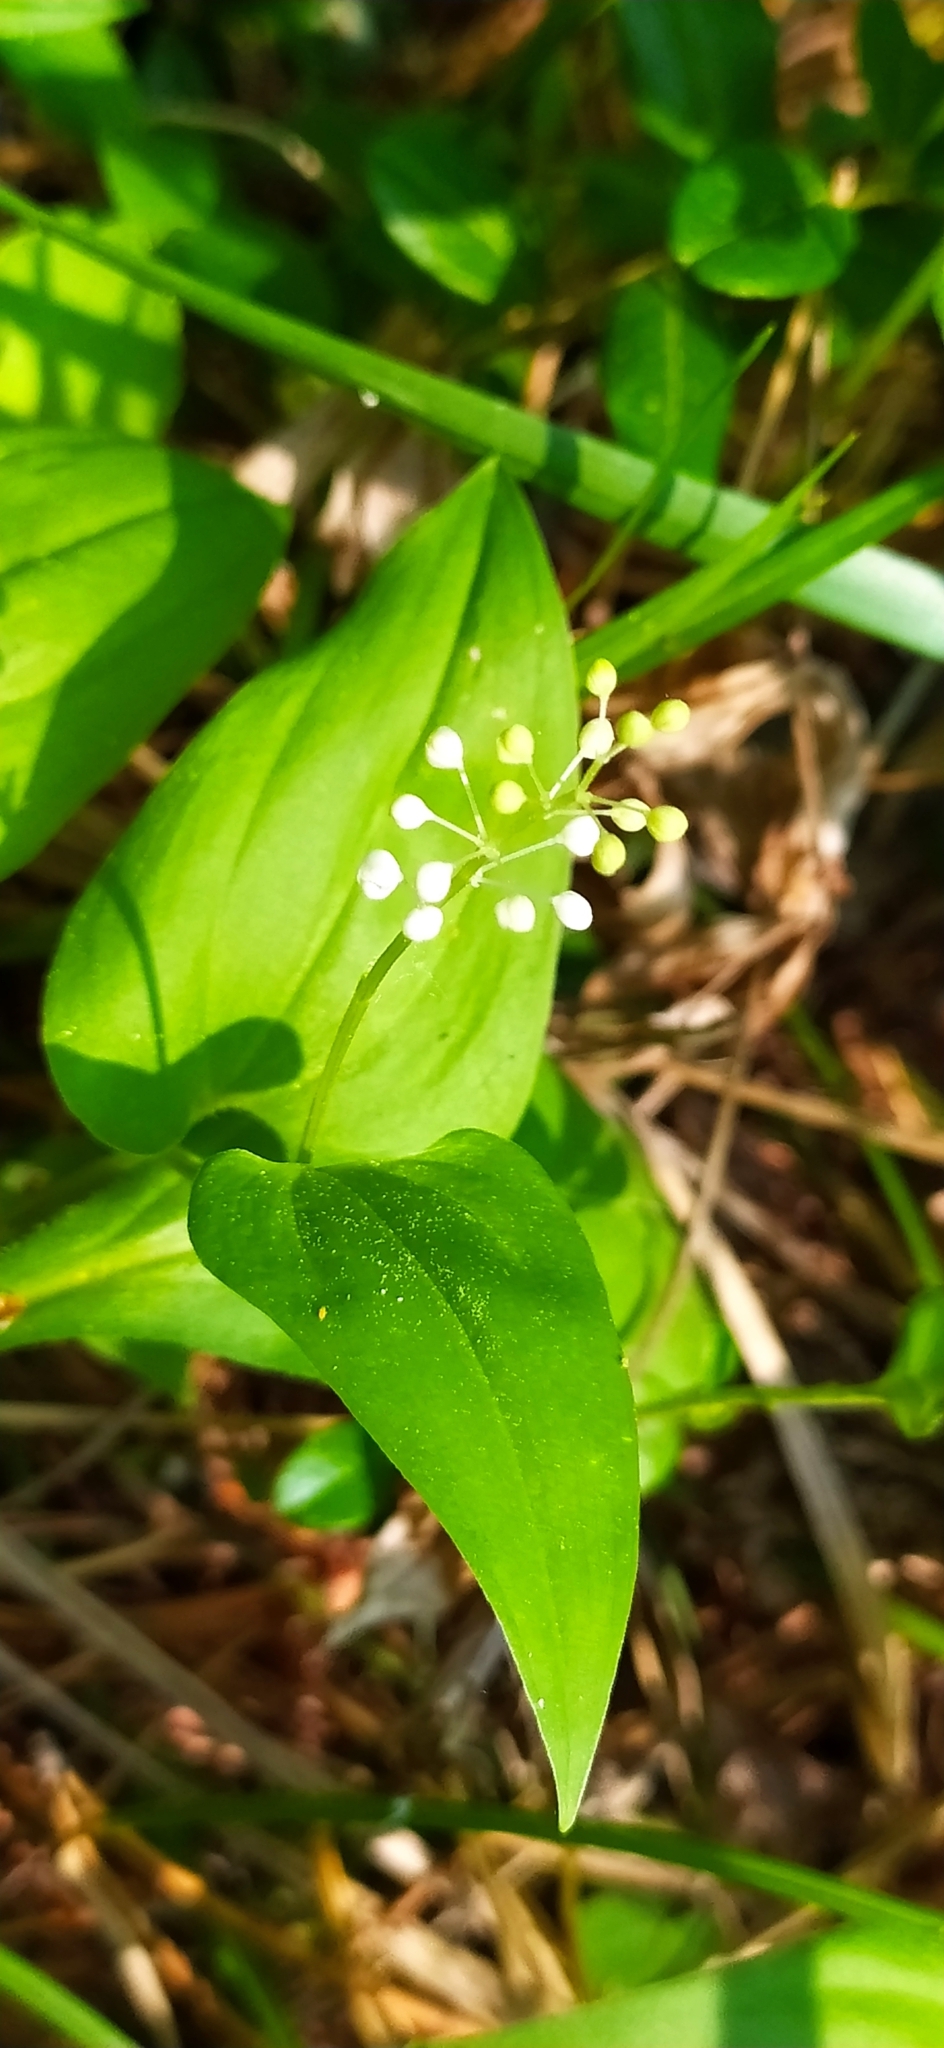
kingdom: Plantae
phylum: Tracheophyta
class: Liliopsida
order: Asparagales
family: Asparagaceae
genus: Maianthemum
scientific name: Maianthemum bifolium
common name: May lily
